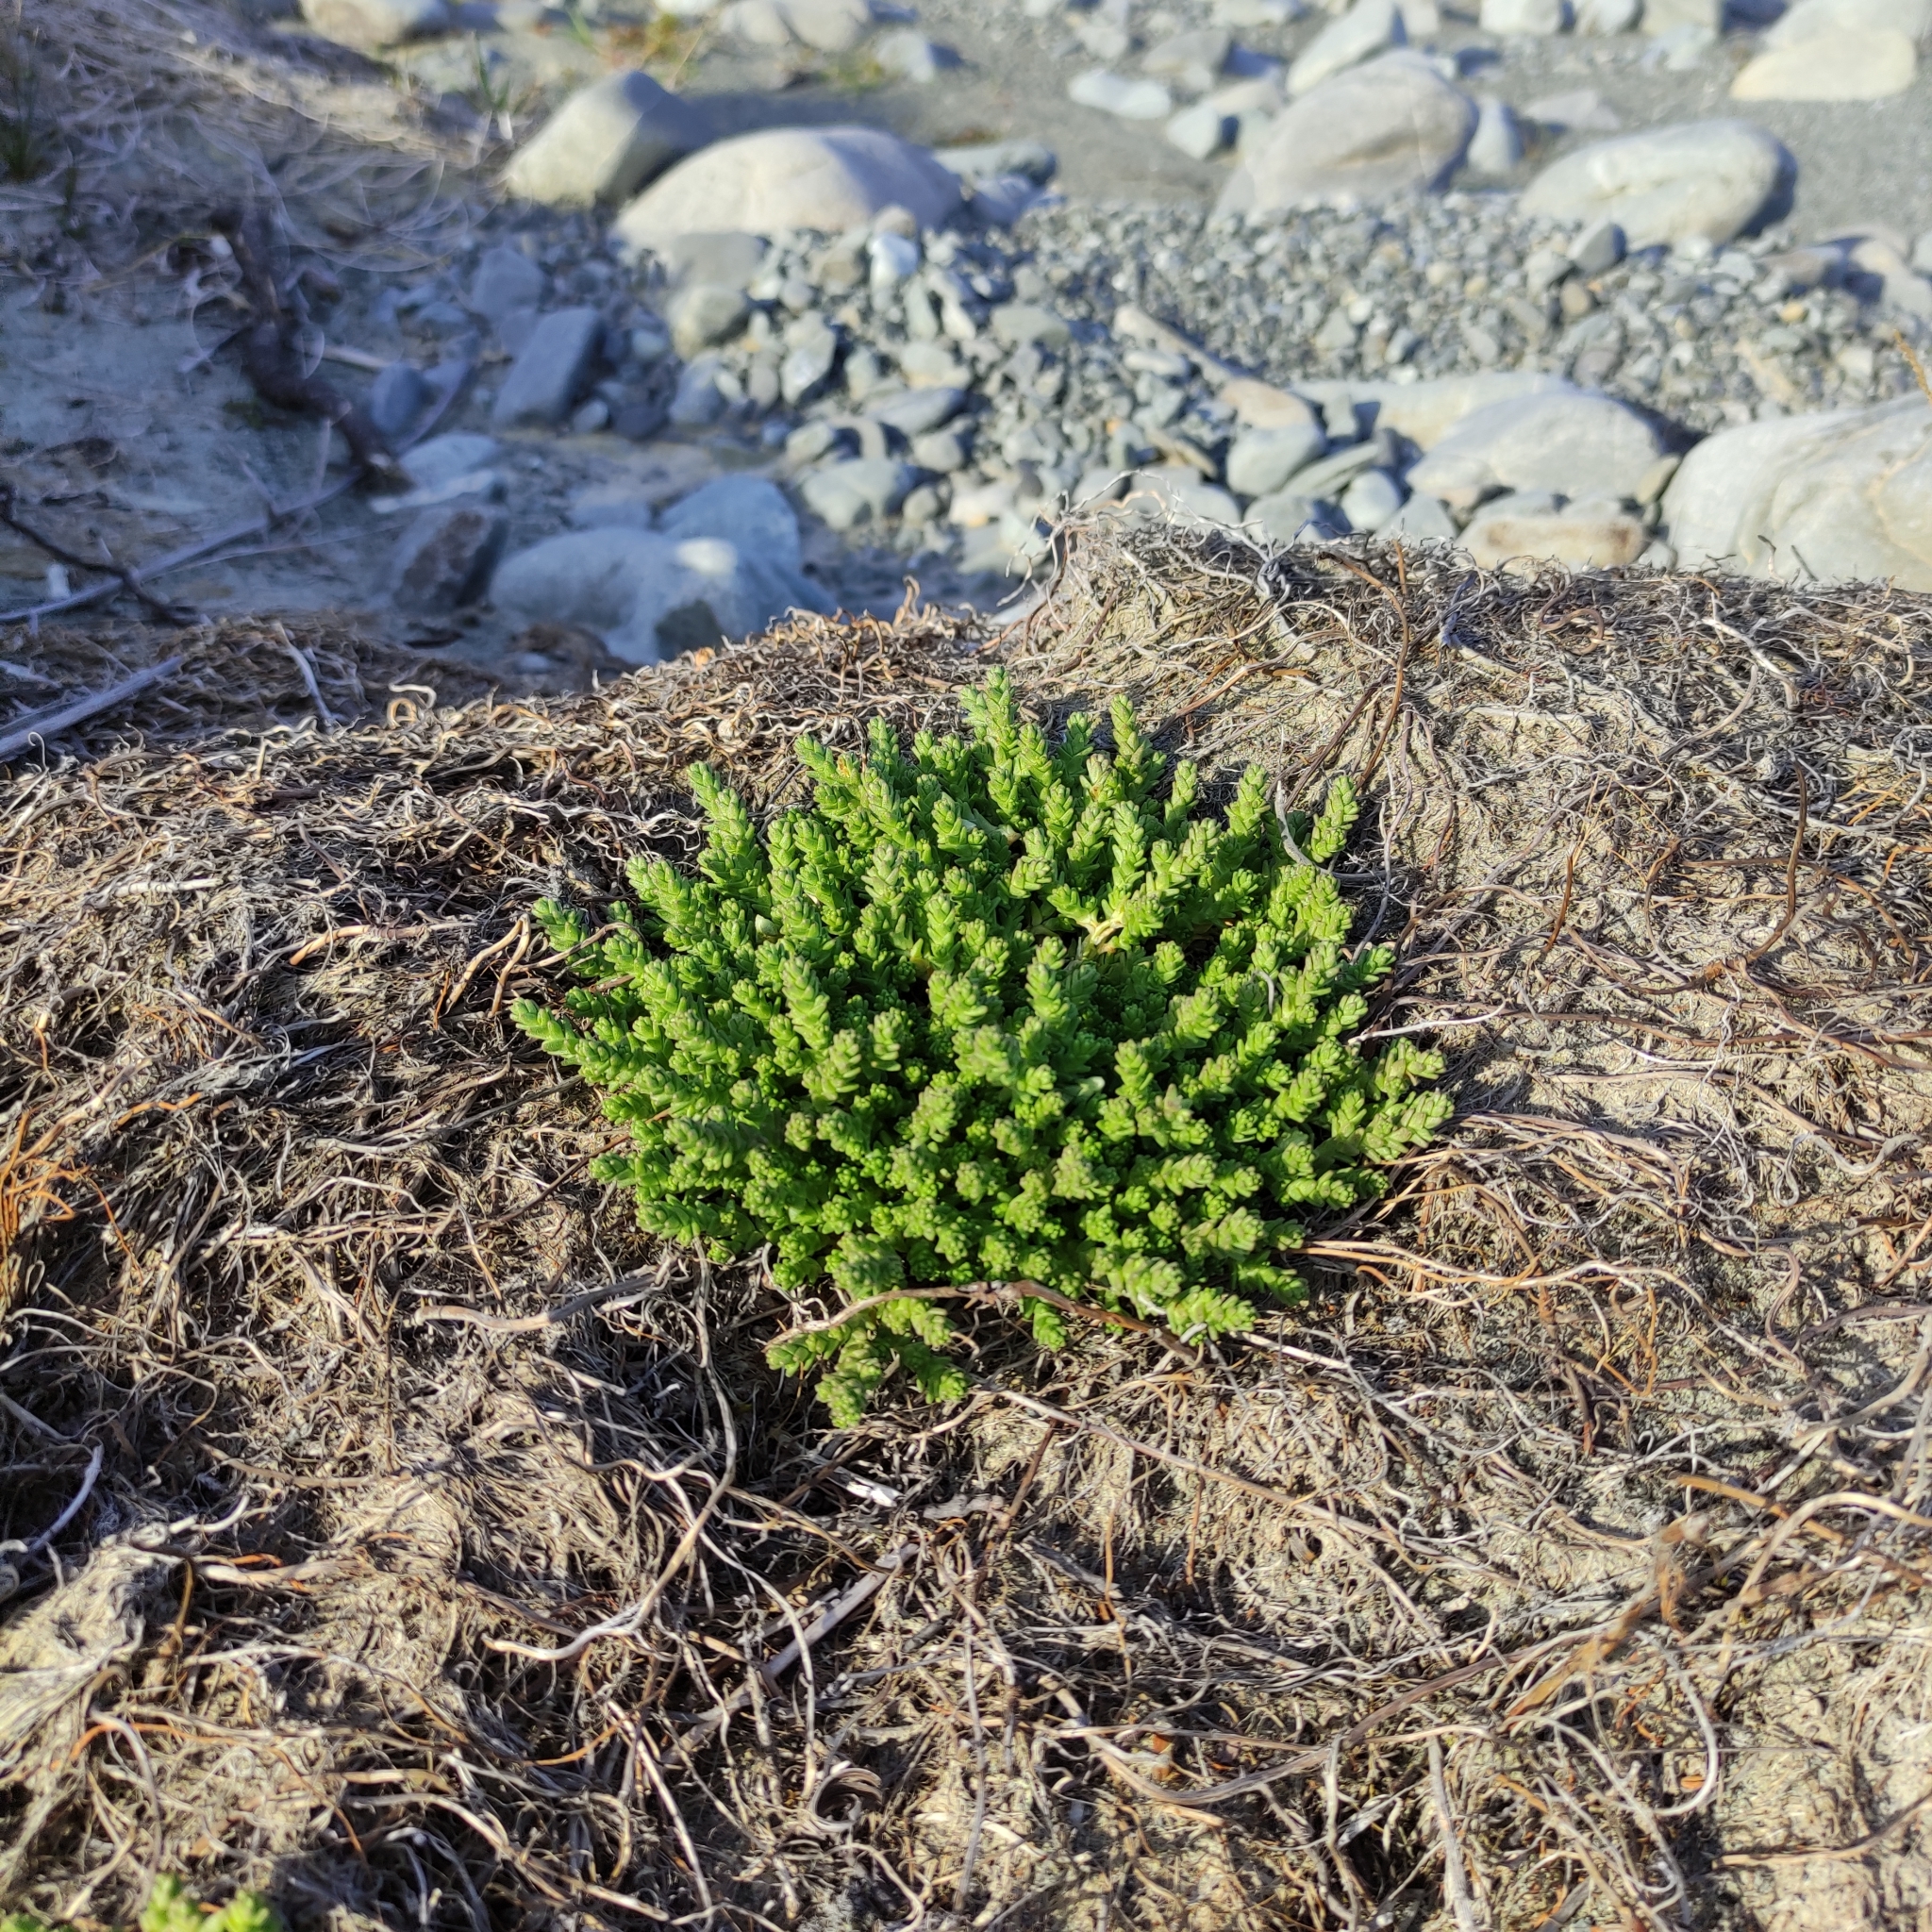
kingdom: Plantae
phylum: Tracheophyta
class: Magnoliopsida
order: Saxifragales
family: Crassulaceae
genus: Sedum
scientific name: Sedum acre
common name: Biting stonecrop
